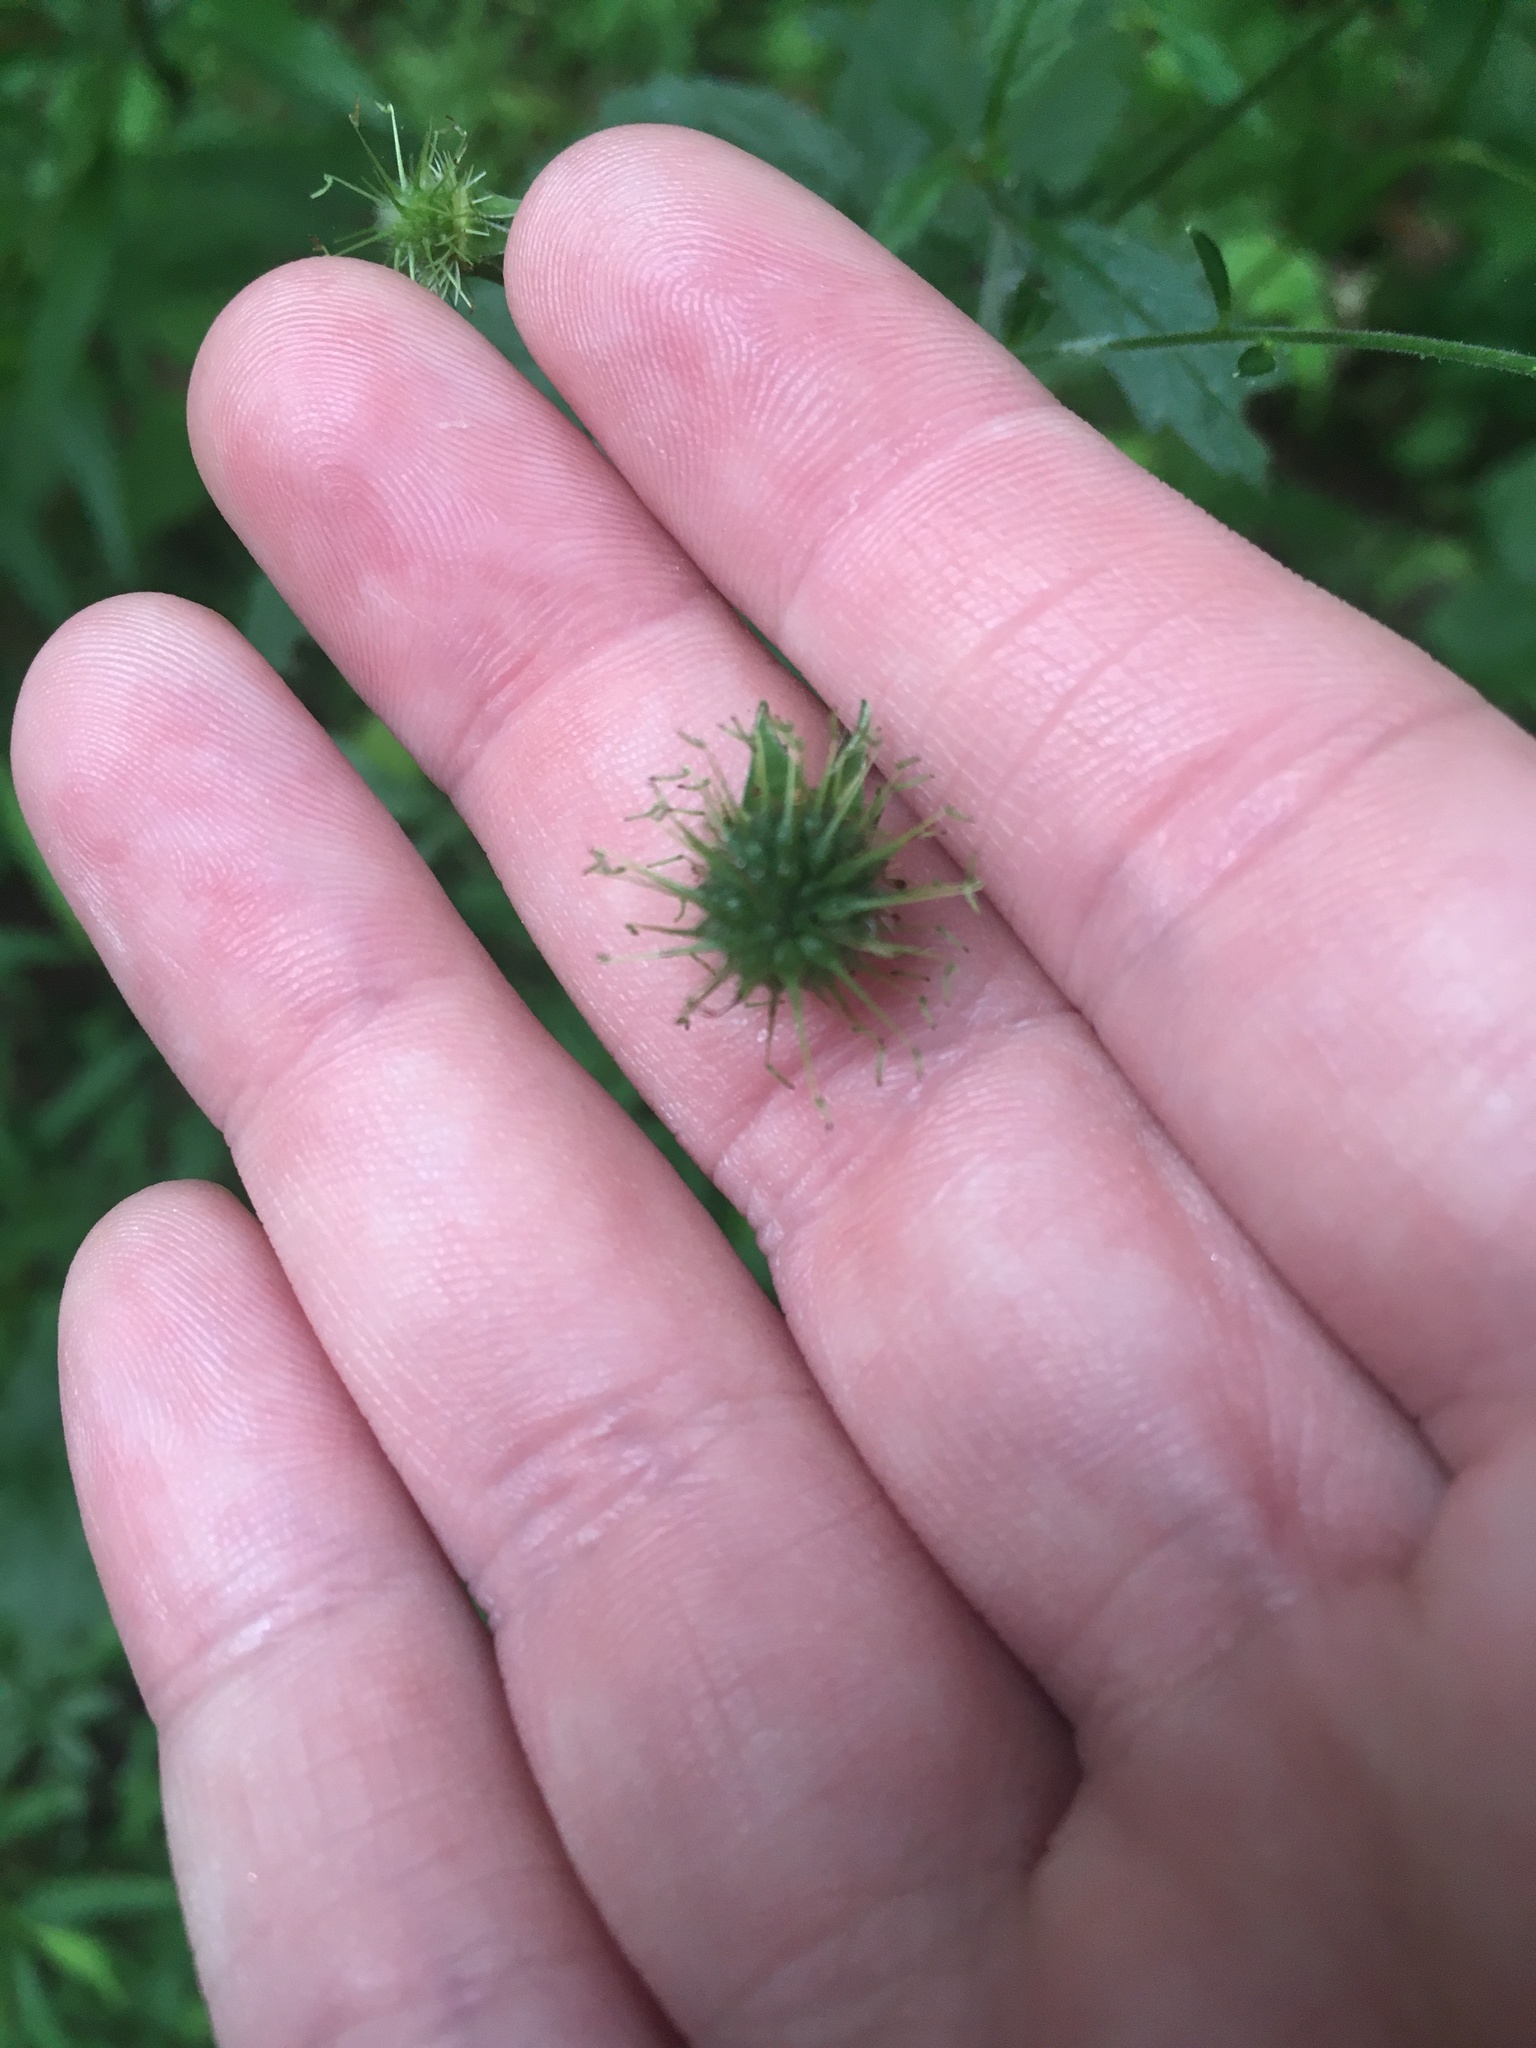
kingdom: Plantae
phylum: Tracheophyta
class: Magnoliopsida
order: Rosales
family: Rosaceae
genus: Geum
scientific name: Geum canadense
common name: White avens
